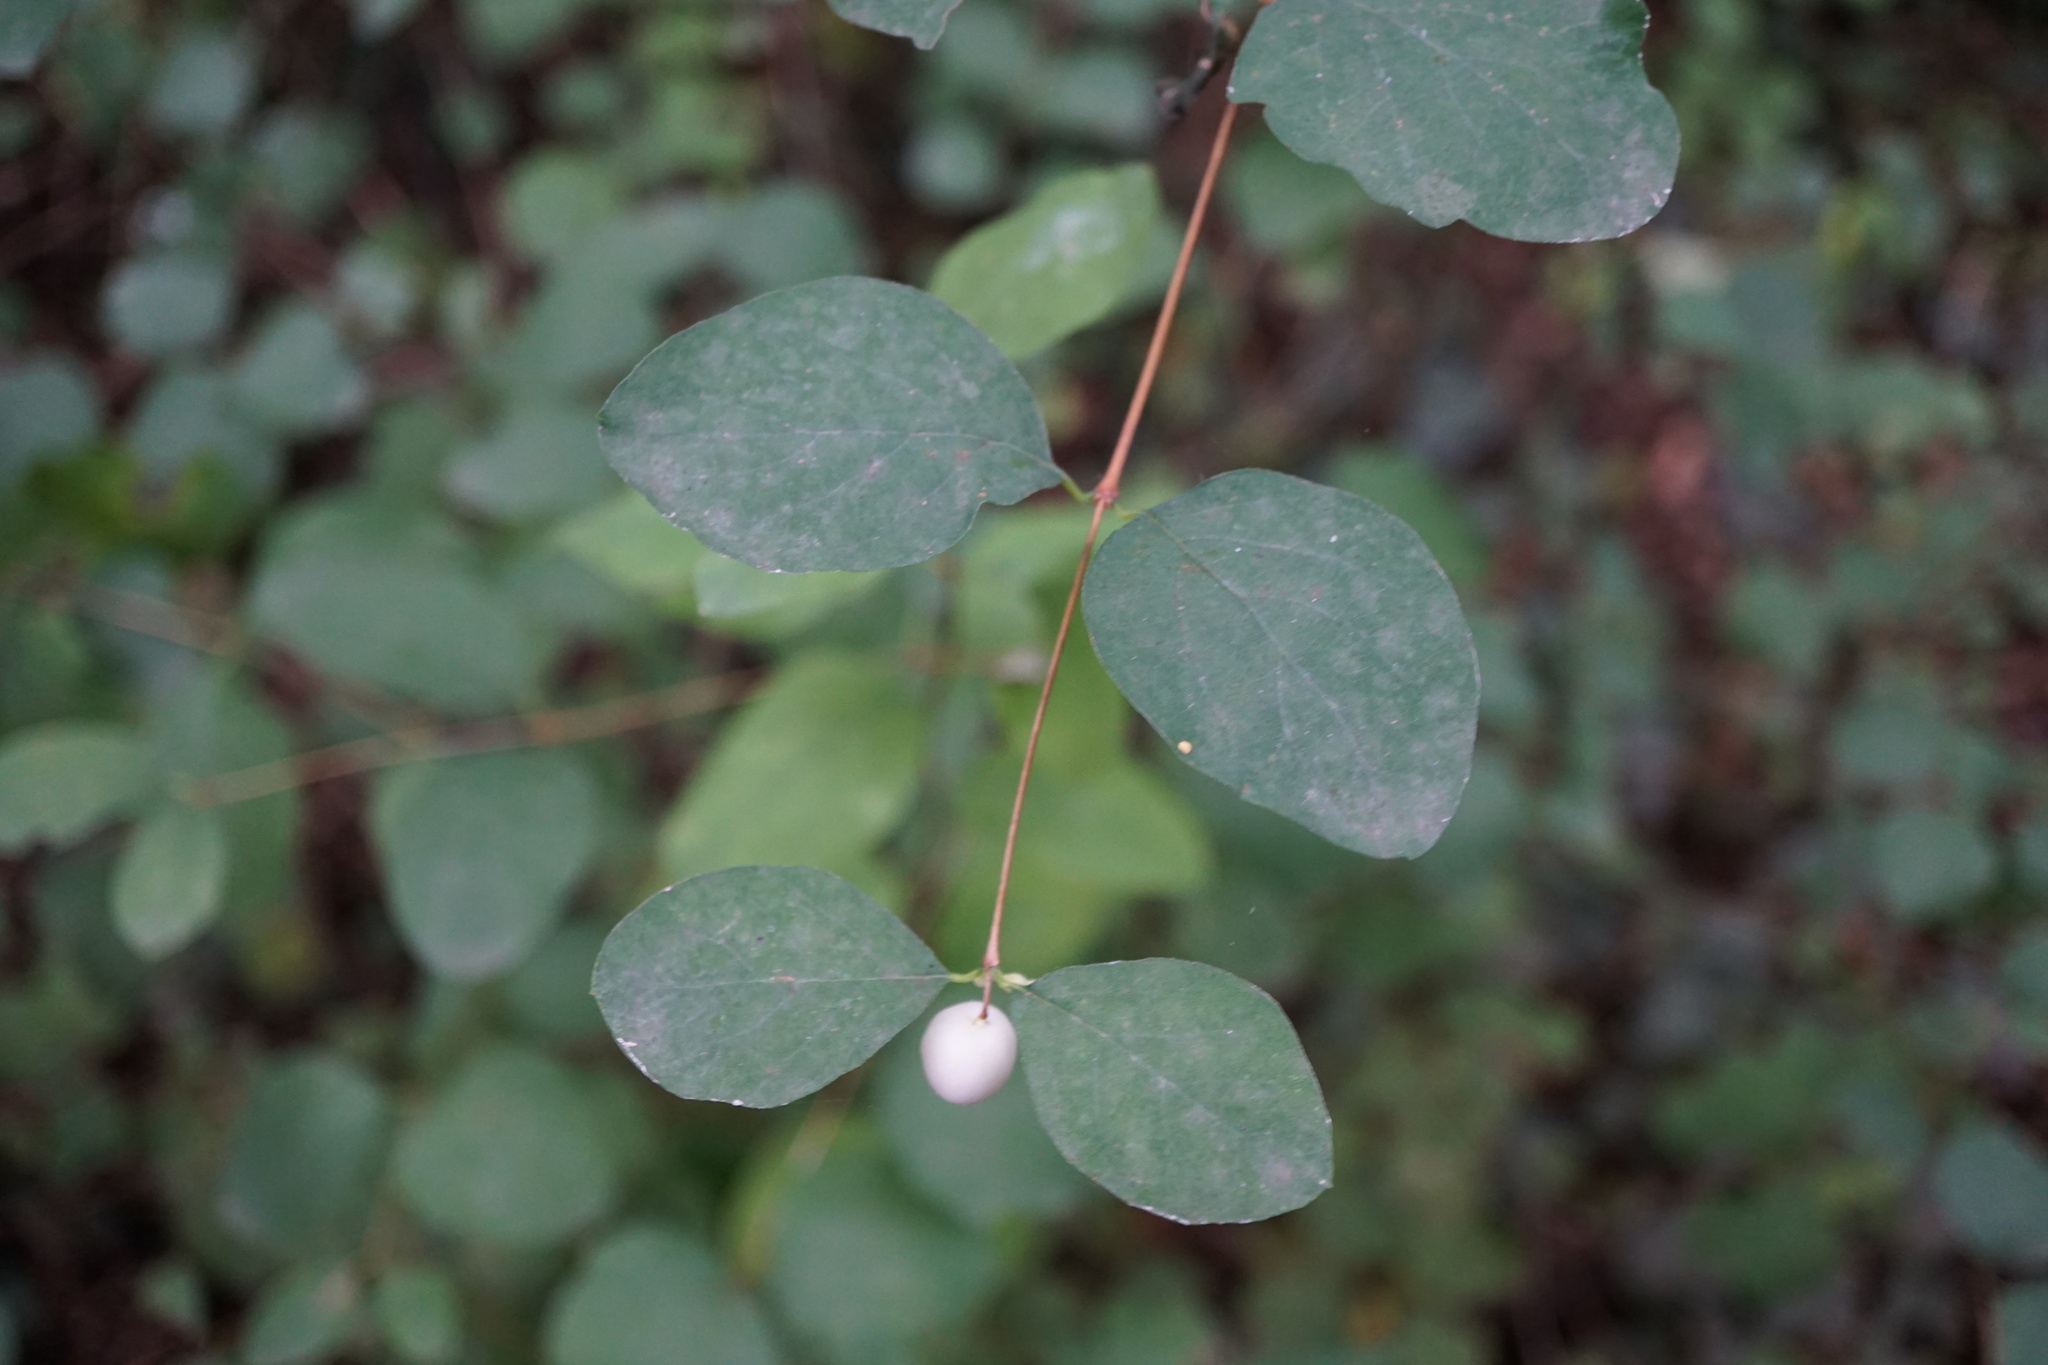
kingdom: Plantae
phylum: Tracheophyta
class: Magnoliopsida
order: Dipsacales
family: Caprifoliaceae
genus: Symphoricarpos
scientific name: Symphoricarpos albus
